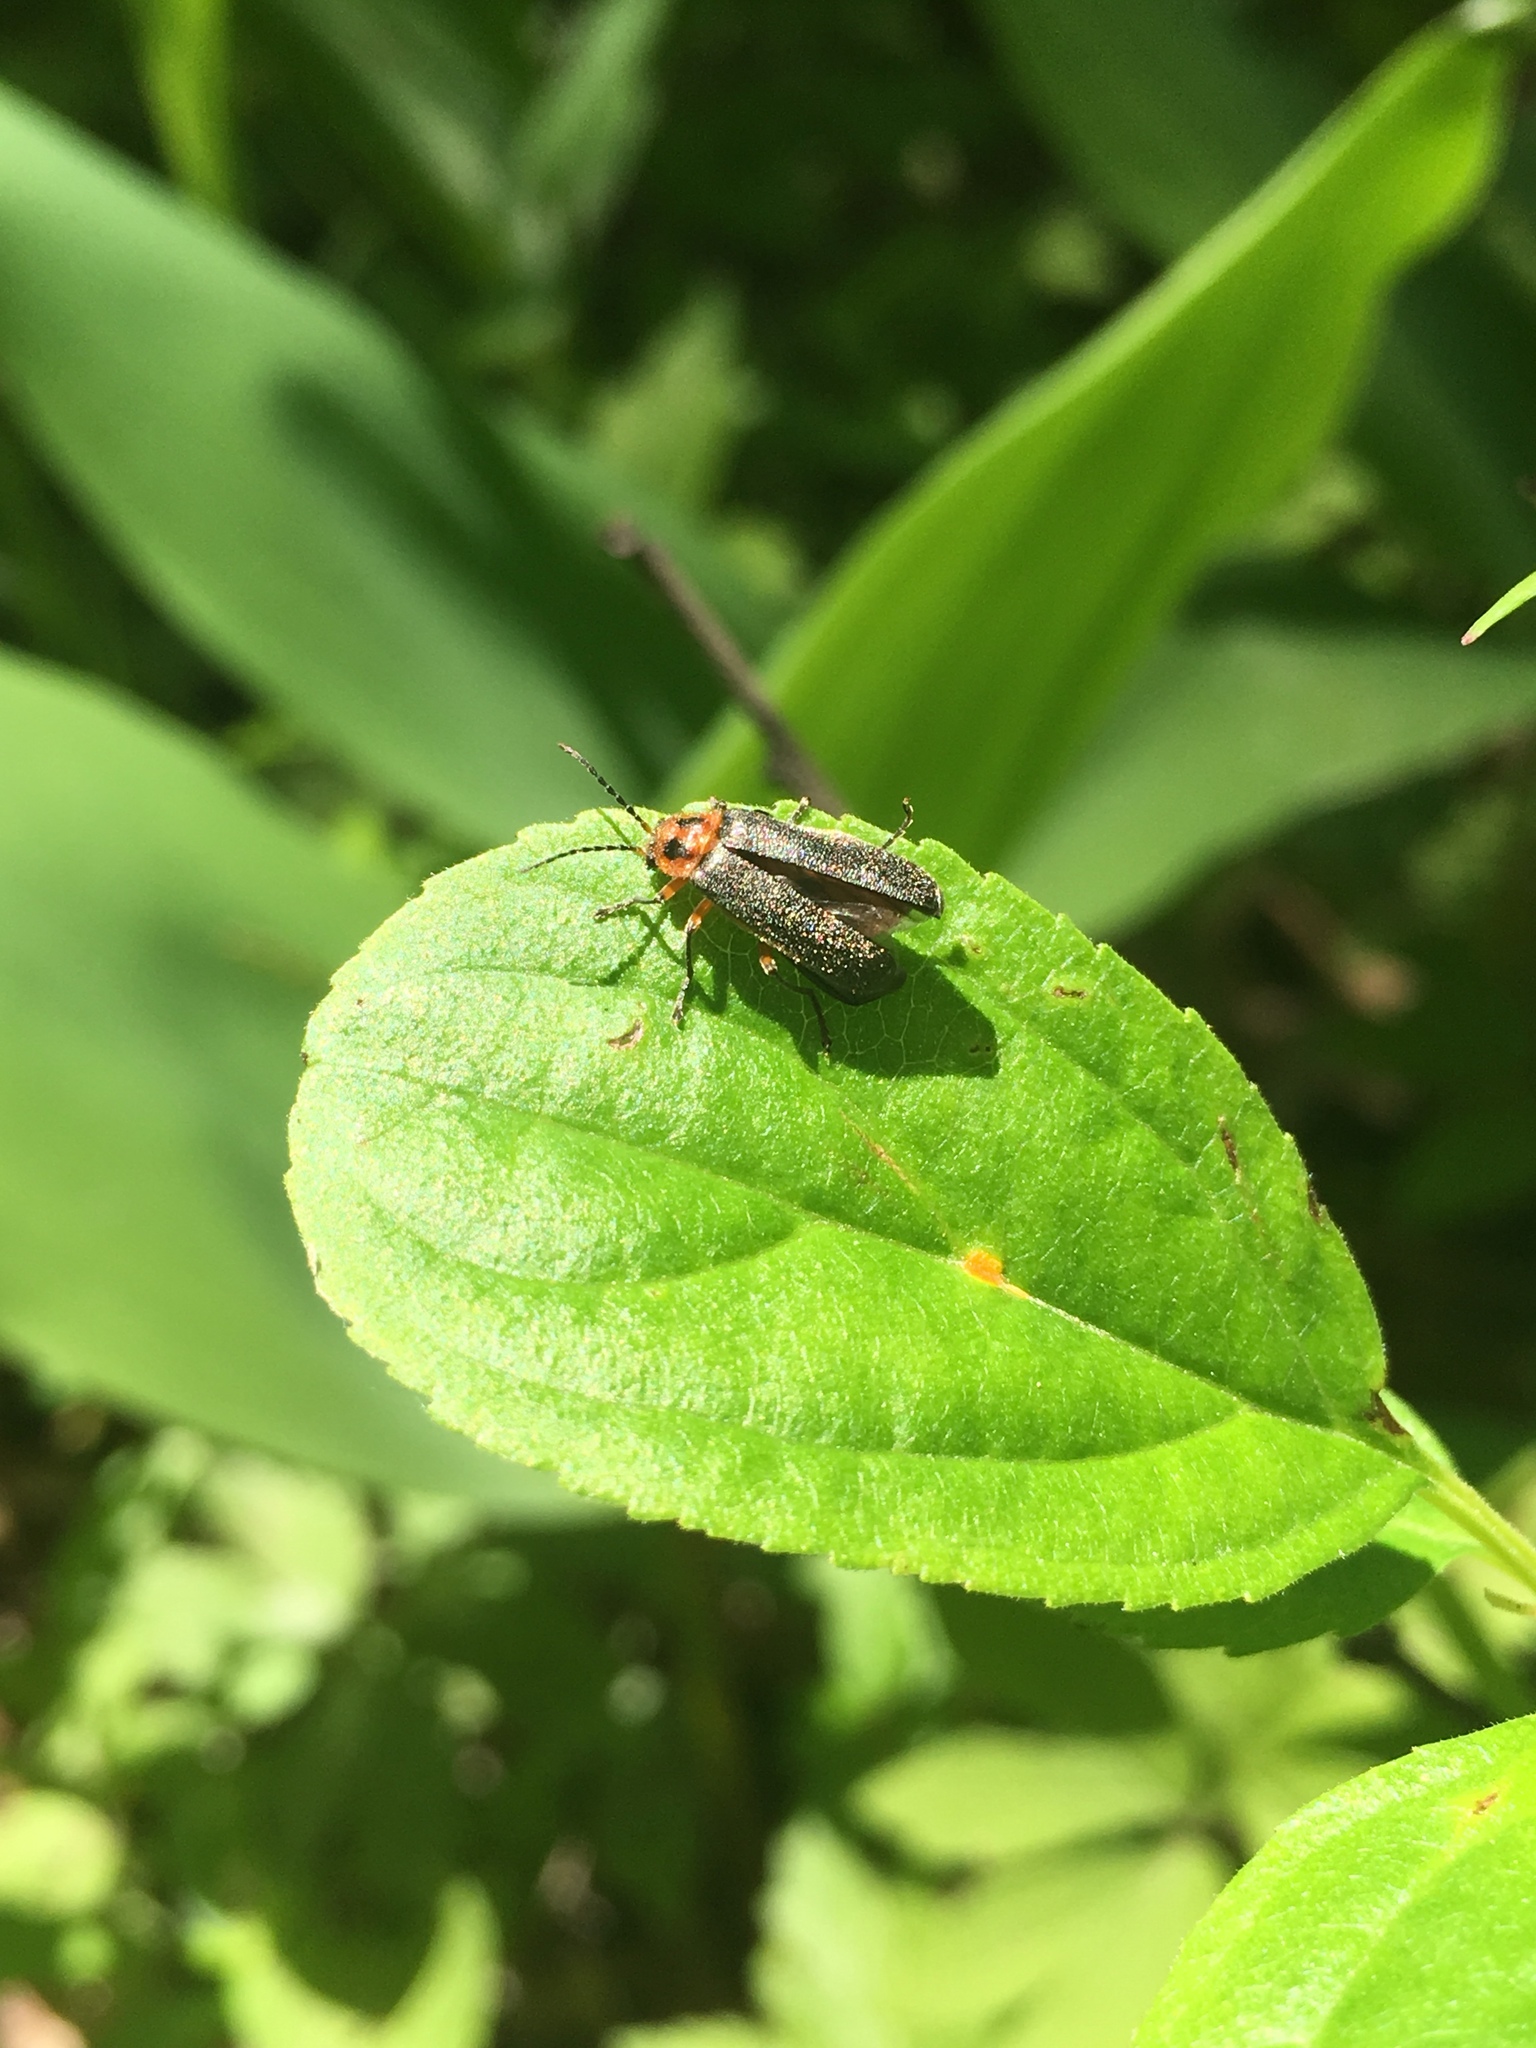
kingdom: Animalia
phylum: Arthropoda
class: Insecta
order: Coleoptera
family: Cantharidae
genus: Atalantycha
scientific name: Atalantycha bilineata
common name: Two-lined leatherwing
